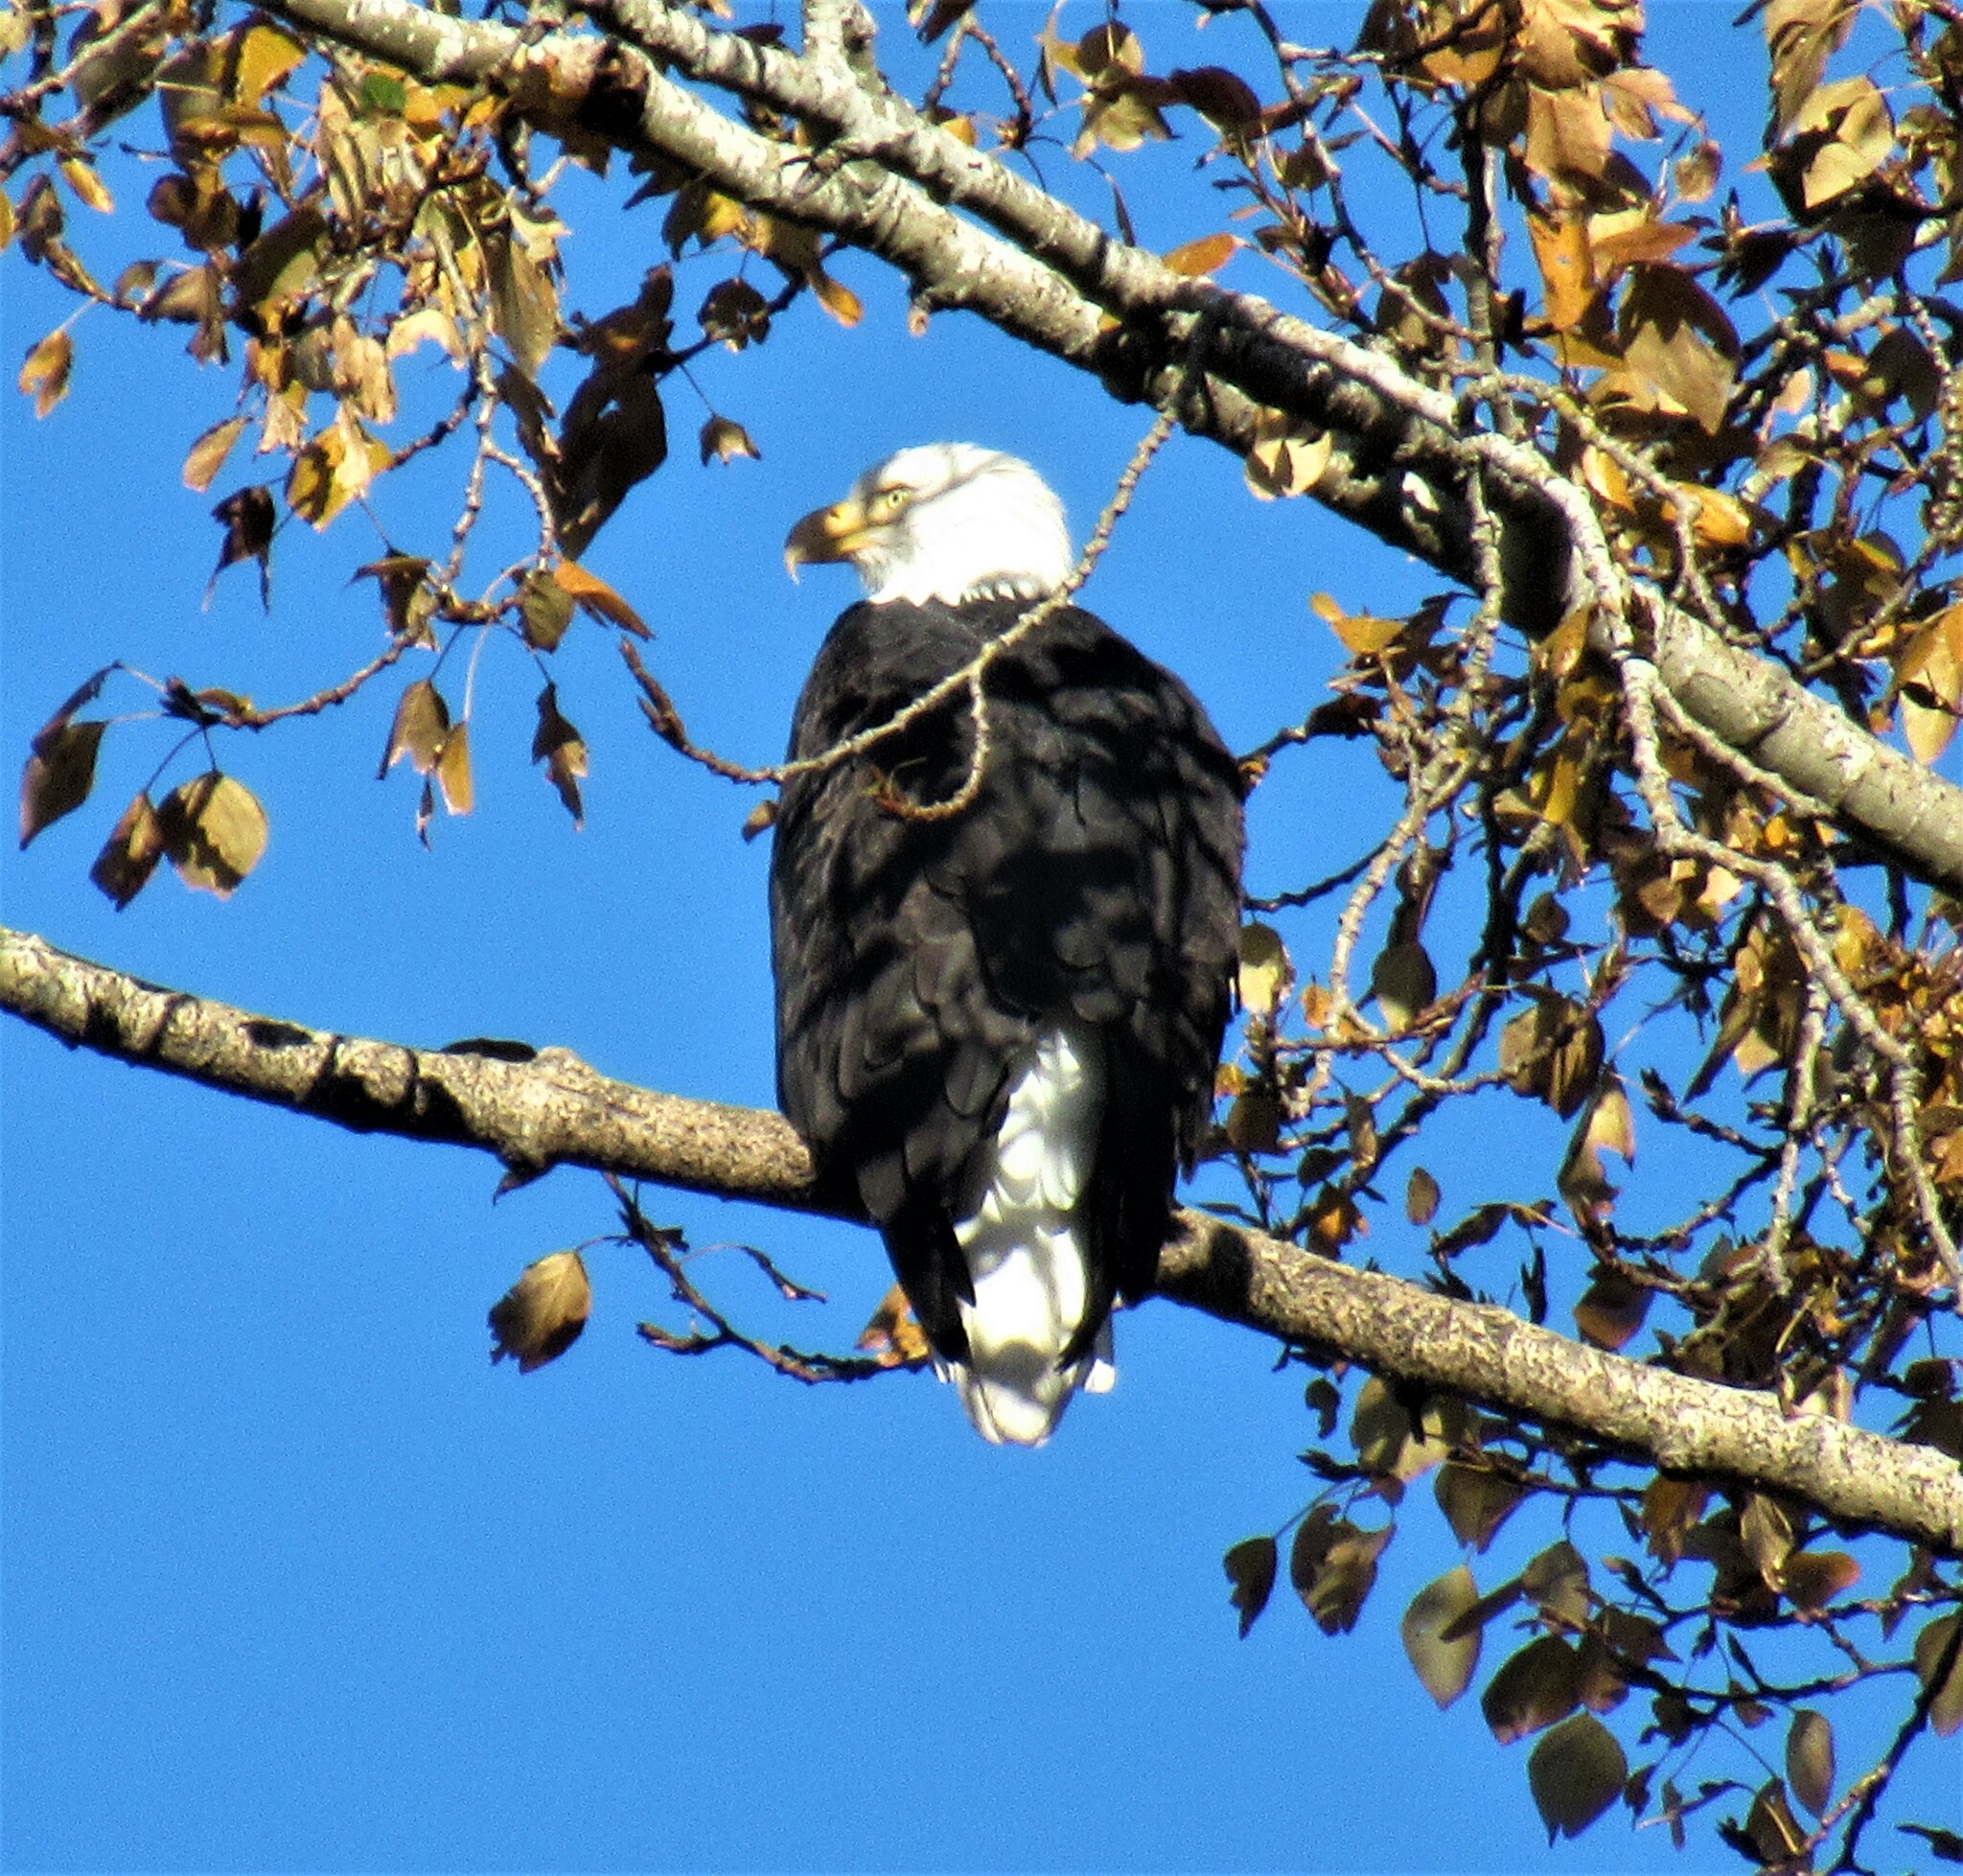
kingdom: Animalia
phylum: Chordata
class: Aves
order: Accipitriformes
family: Accipitridae
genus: Haliaeetus
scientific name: Haliaeetus leucocephalus
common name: Bald eagle
